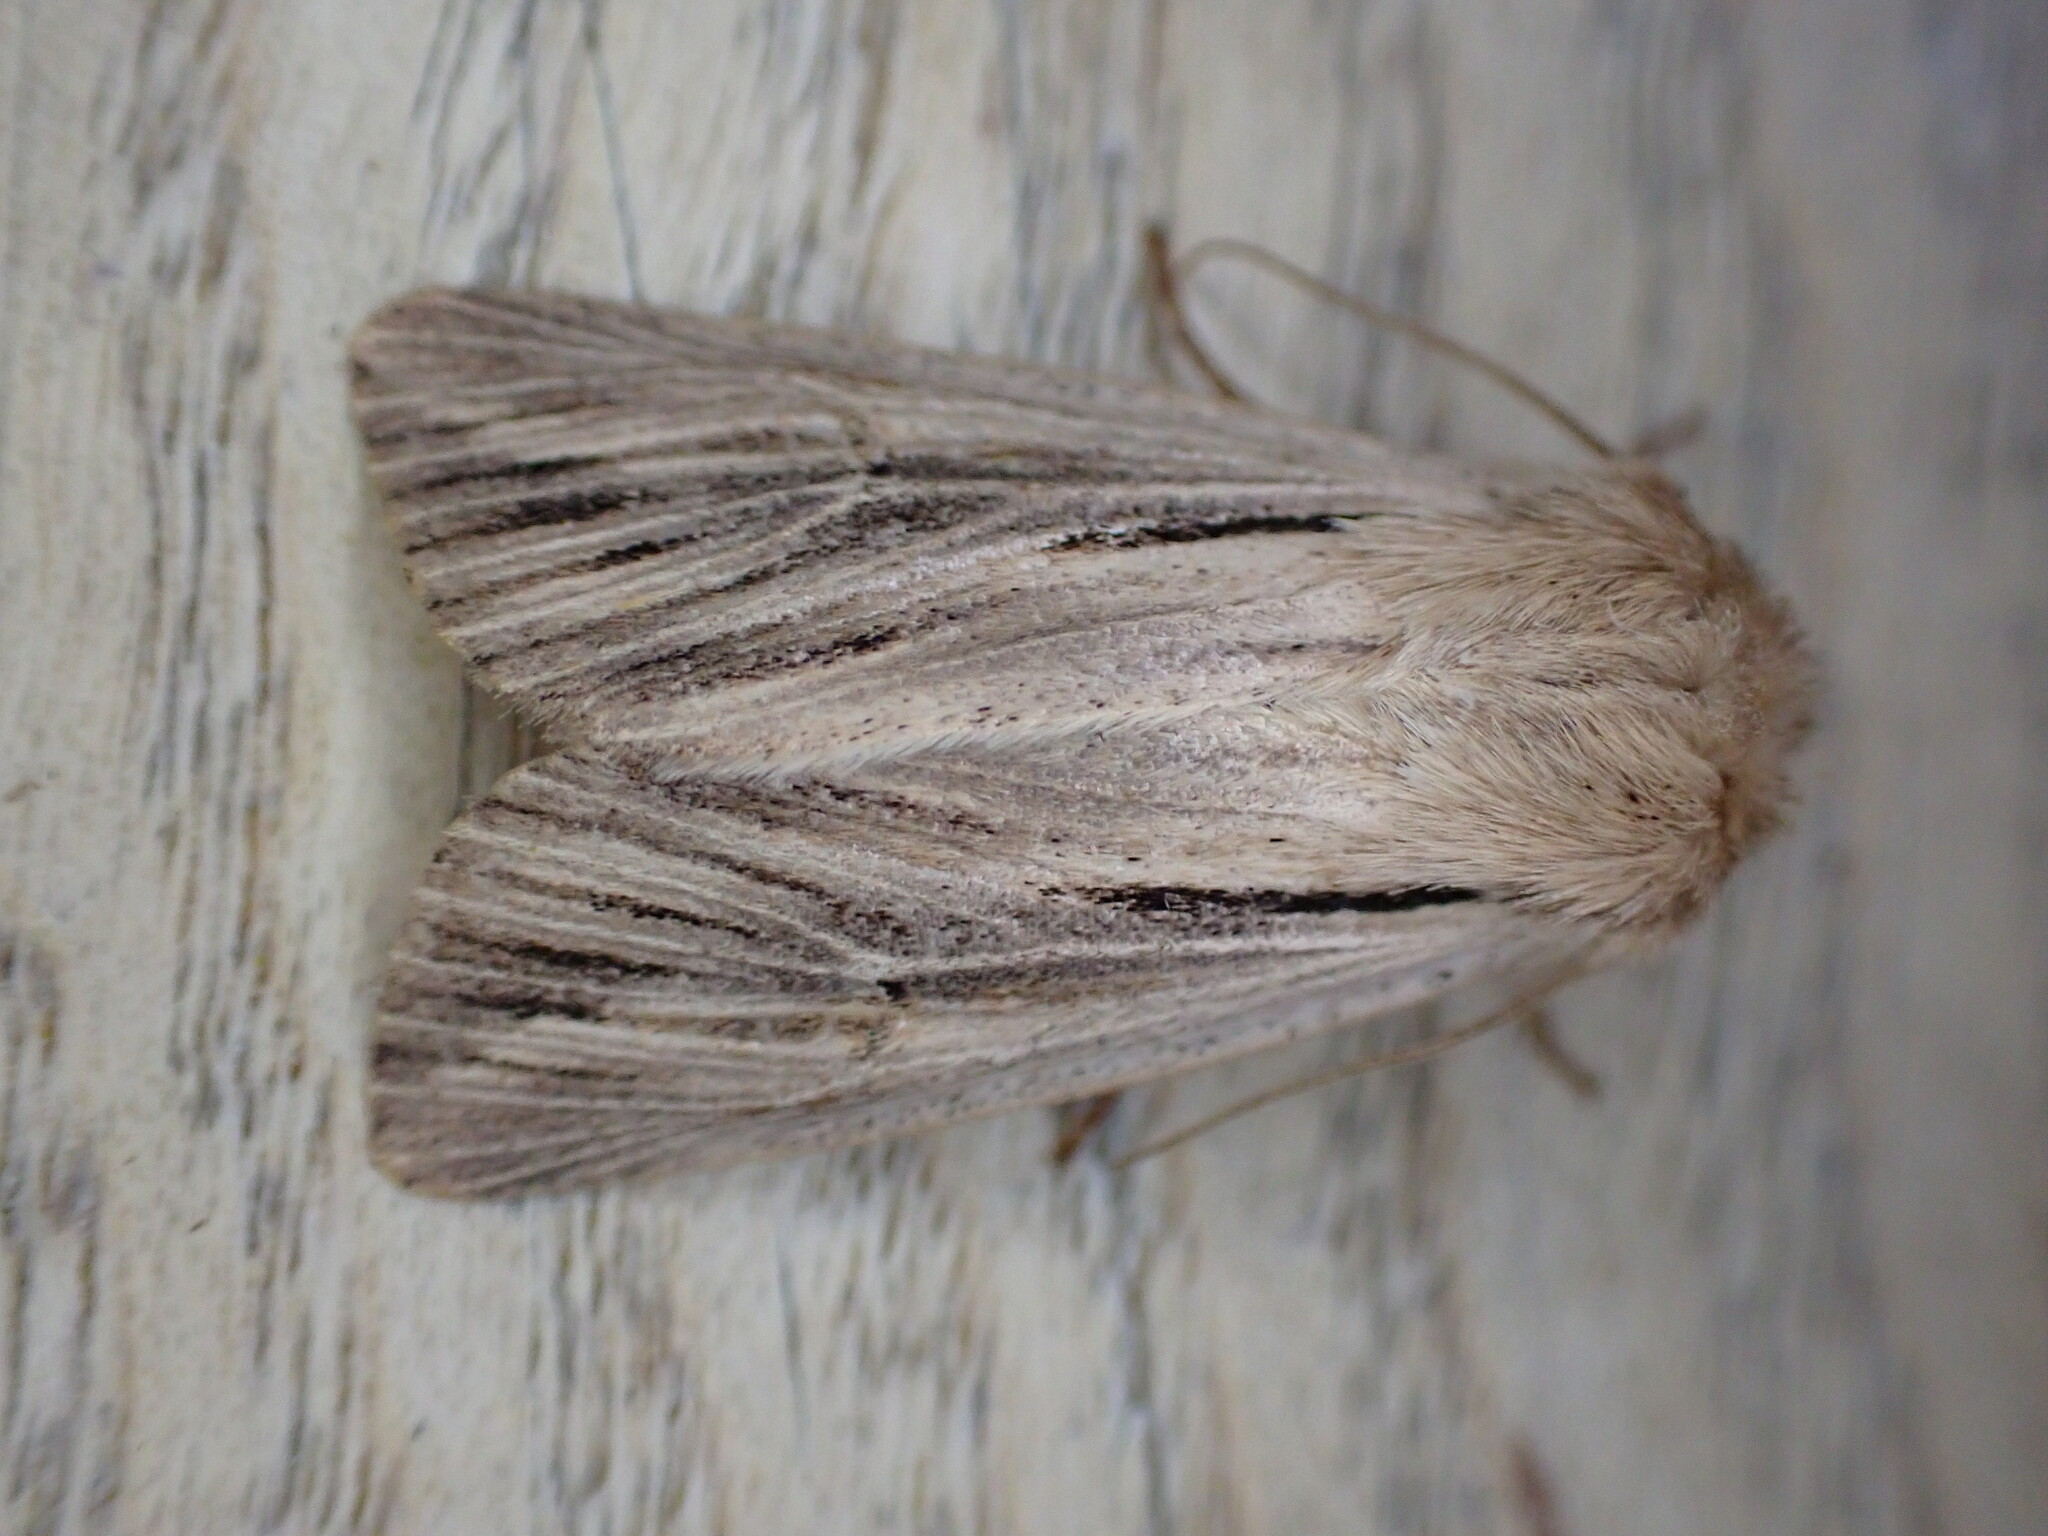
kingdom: Animalia
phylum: Arthropoda
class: Insecta
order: Lepidoptera
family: Noctuidae
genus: Leucania
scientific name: Leucania comma
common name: Shoulder-striped wainscot
